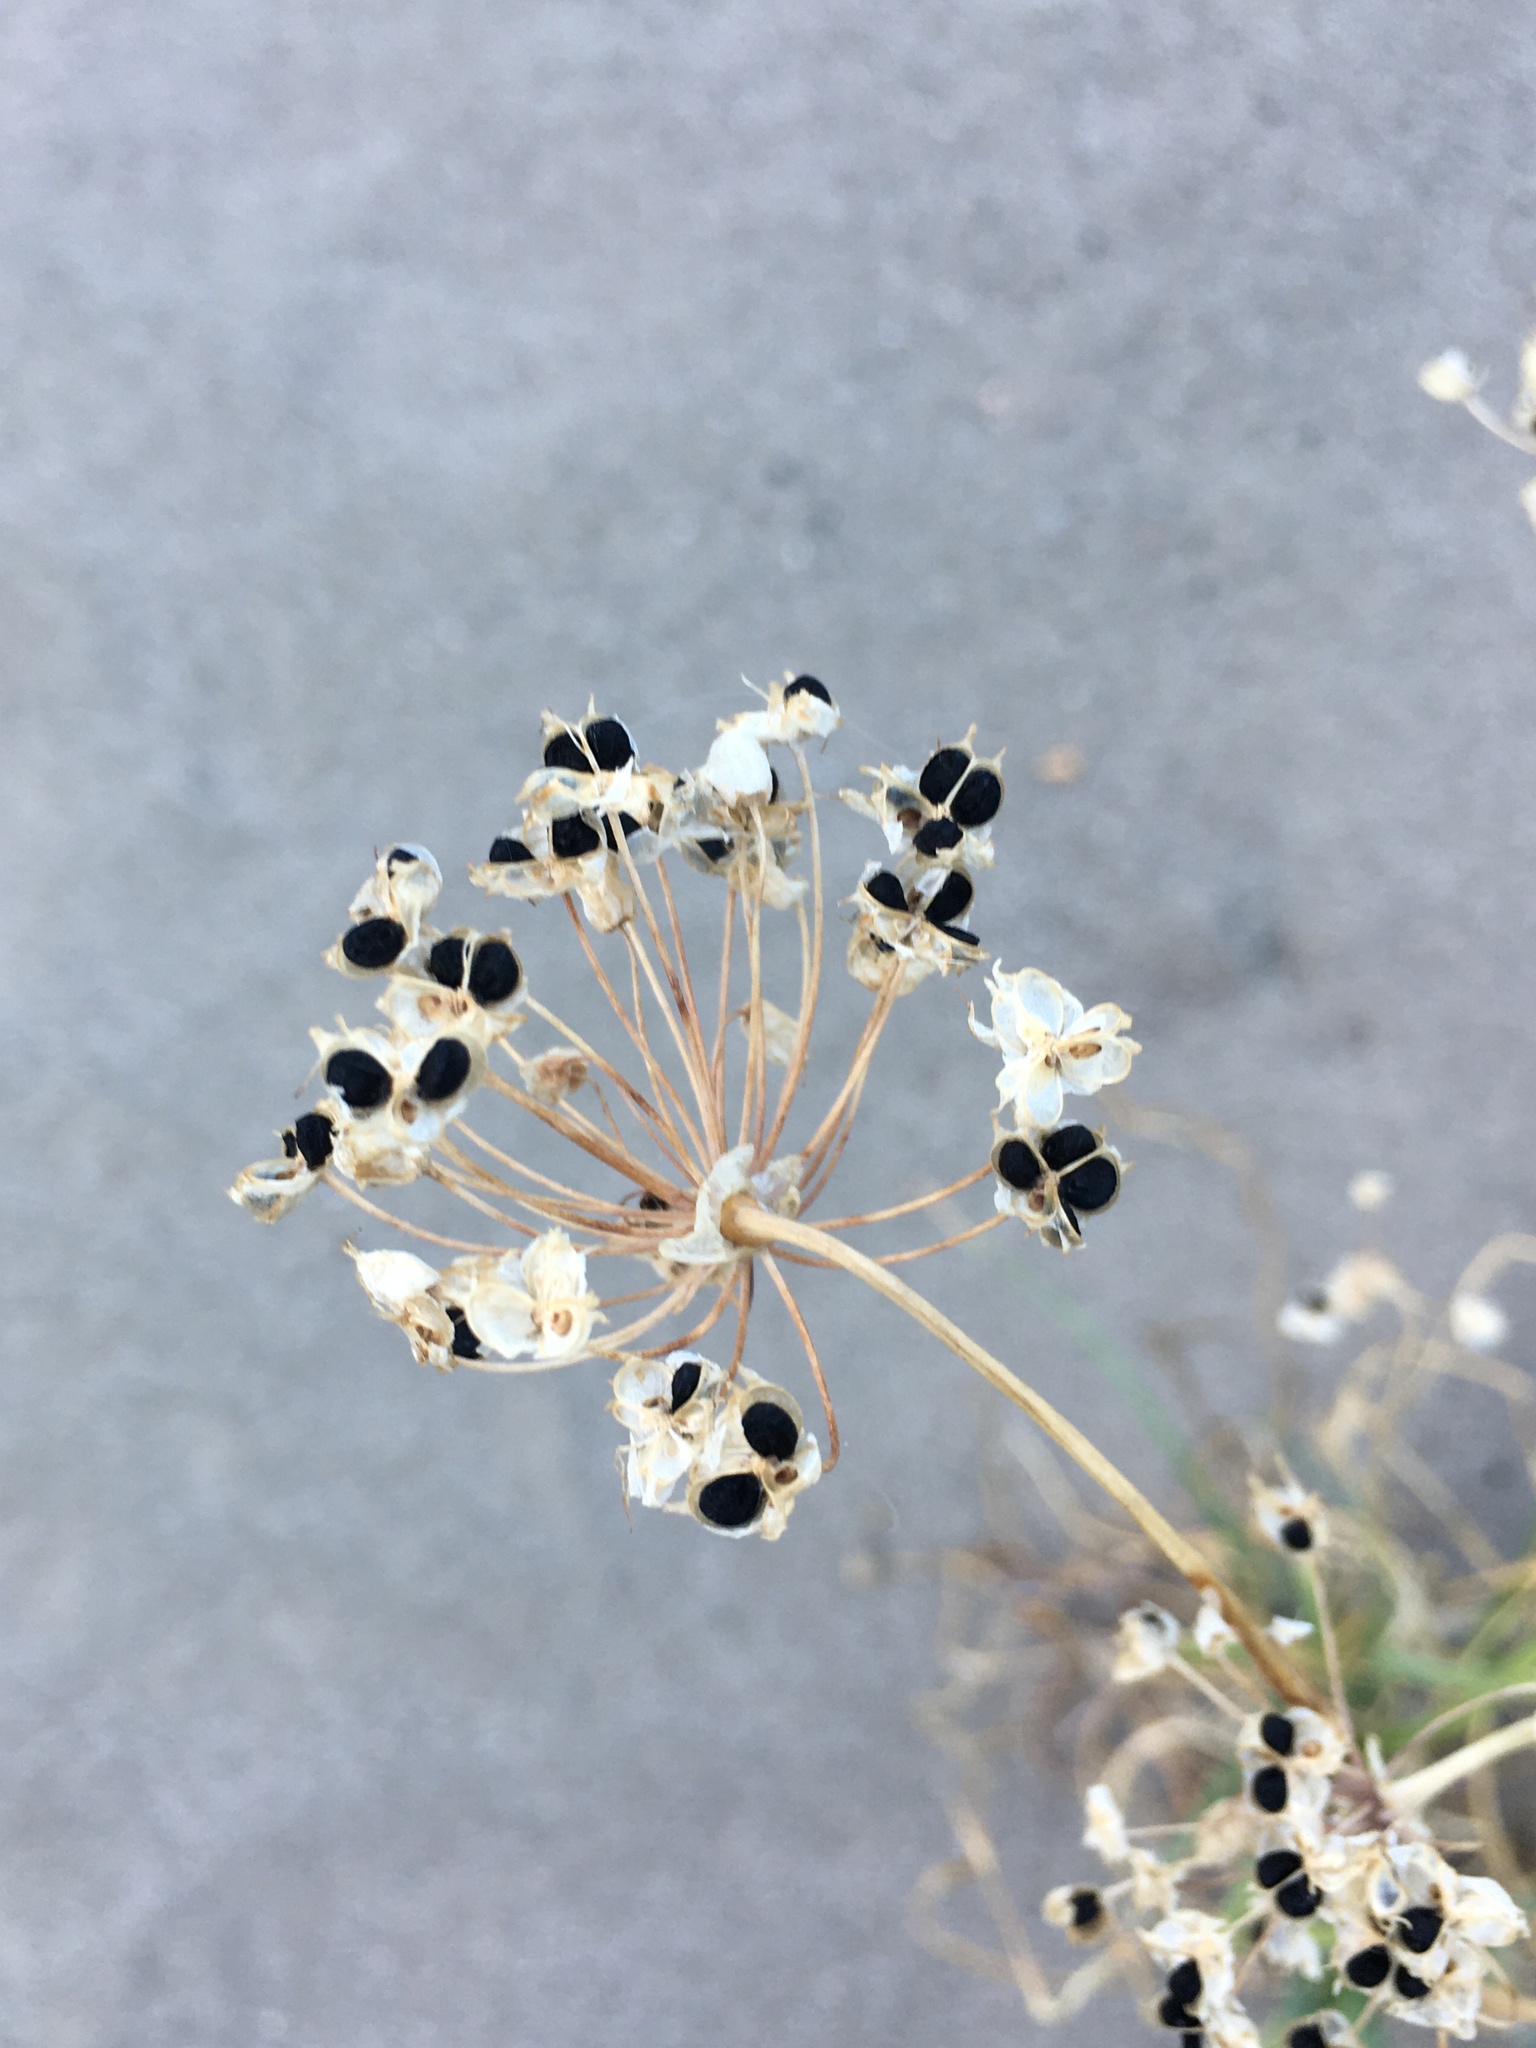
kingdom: Plantae
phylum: Tracheophyta
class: Liliopsida
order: Asparagales
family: Amaryllidaceae
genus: Allium
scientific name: Allium cernuum
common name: Nodding onion
